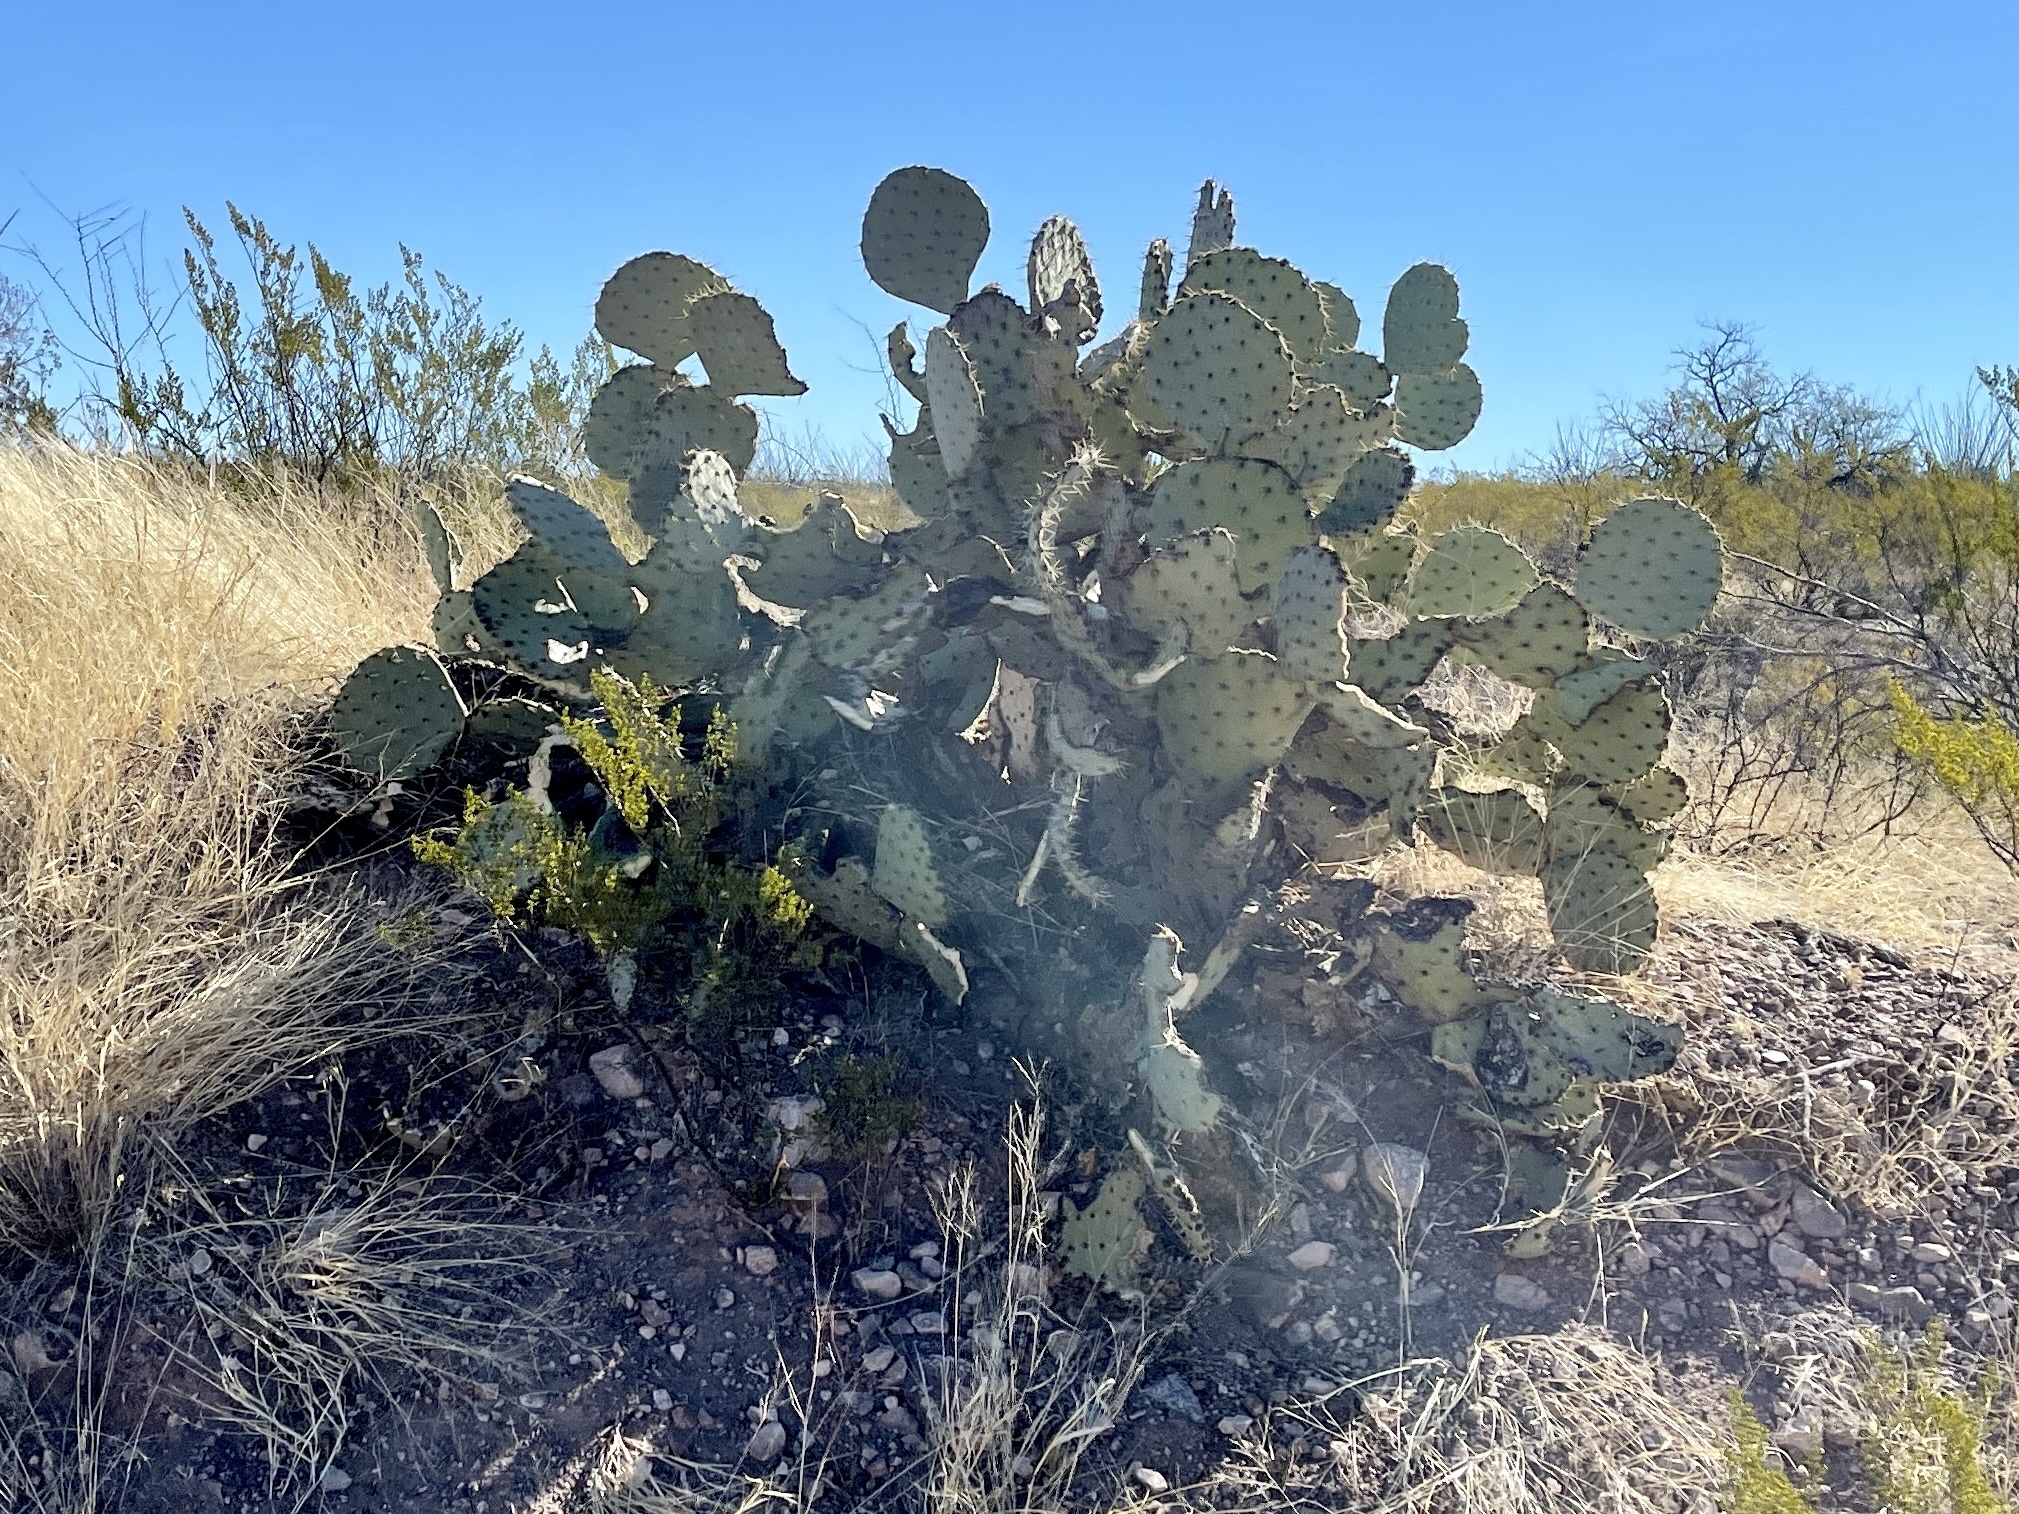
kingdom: Plantae
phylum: Tracheophyta
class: Magnoliopsida
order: Caryophyllales
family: Cactaceae
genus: Opuntia
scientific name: Opuntia engelmannii
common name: Cactus-apple
